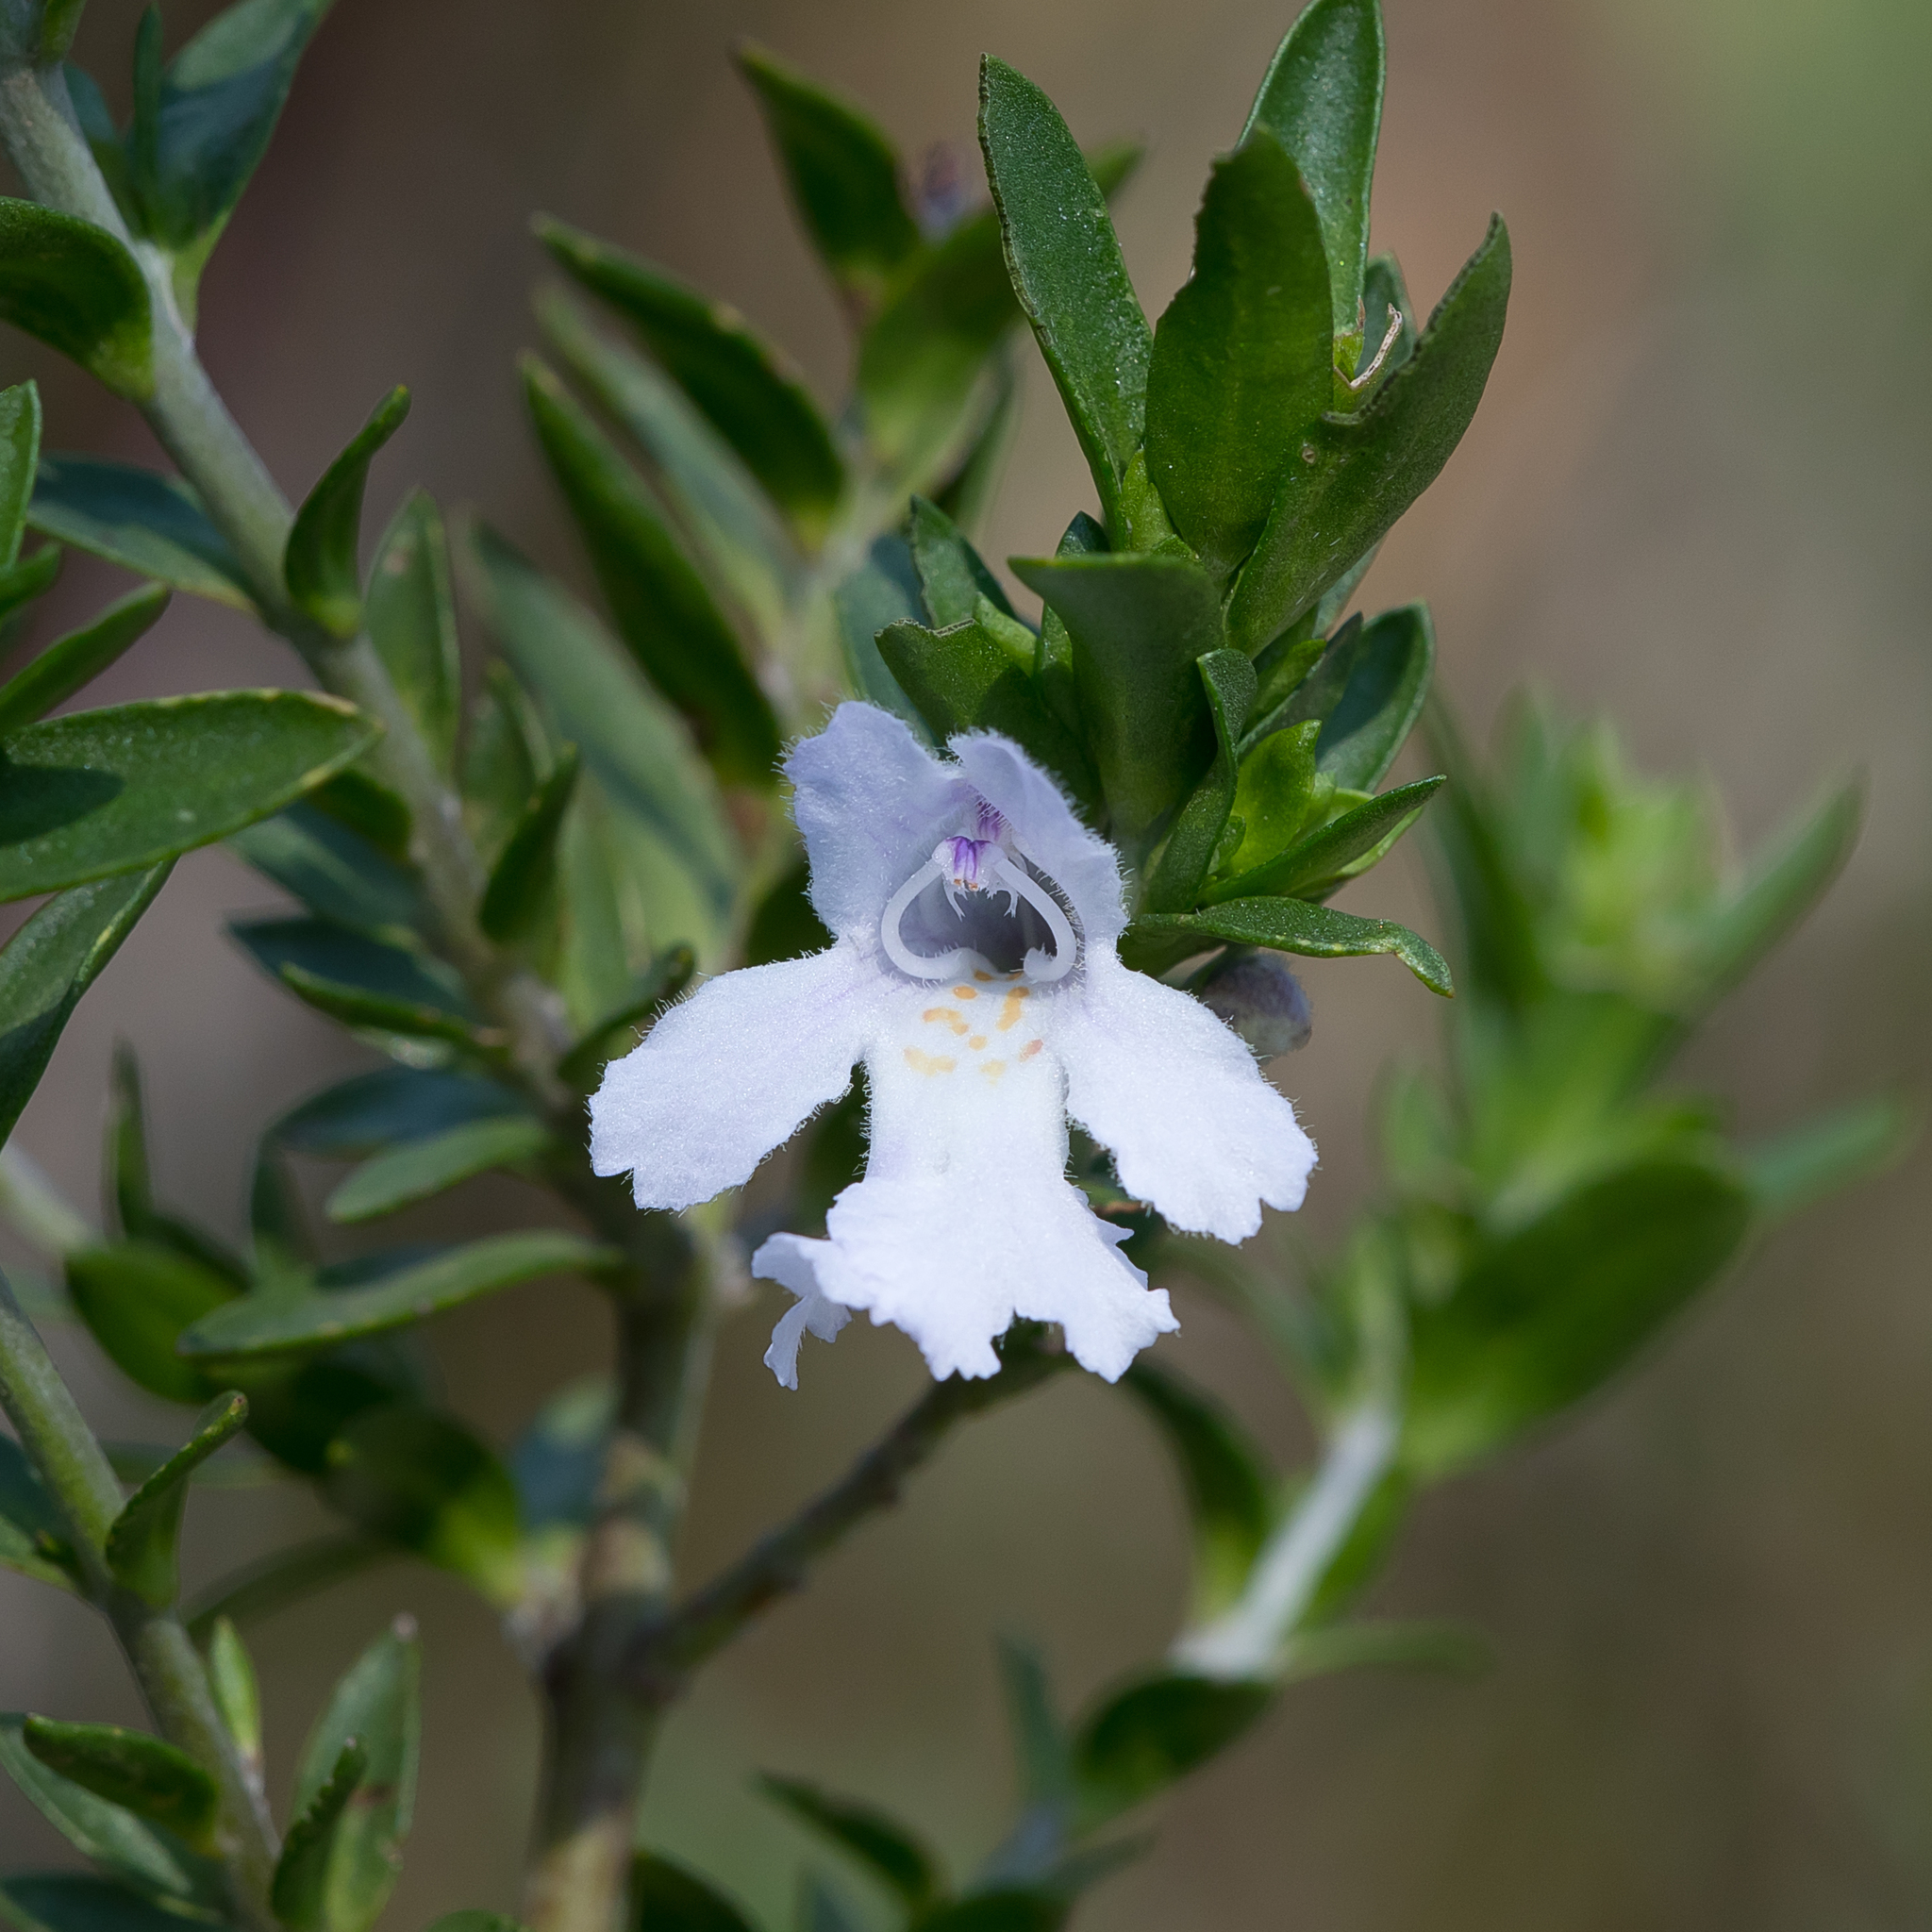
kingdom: Plantae
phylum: Tracheophyta
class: Magnoliopsida
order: Lamiales
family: Lamiaceae
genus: Prostanthera
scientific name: Prostanthera behriana
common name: Downy mintbush
